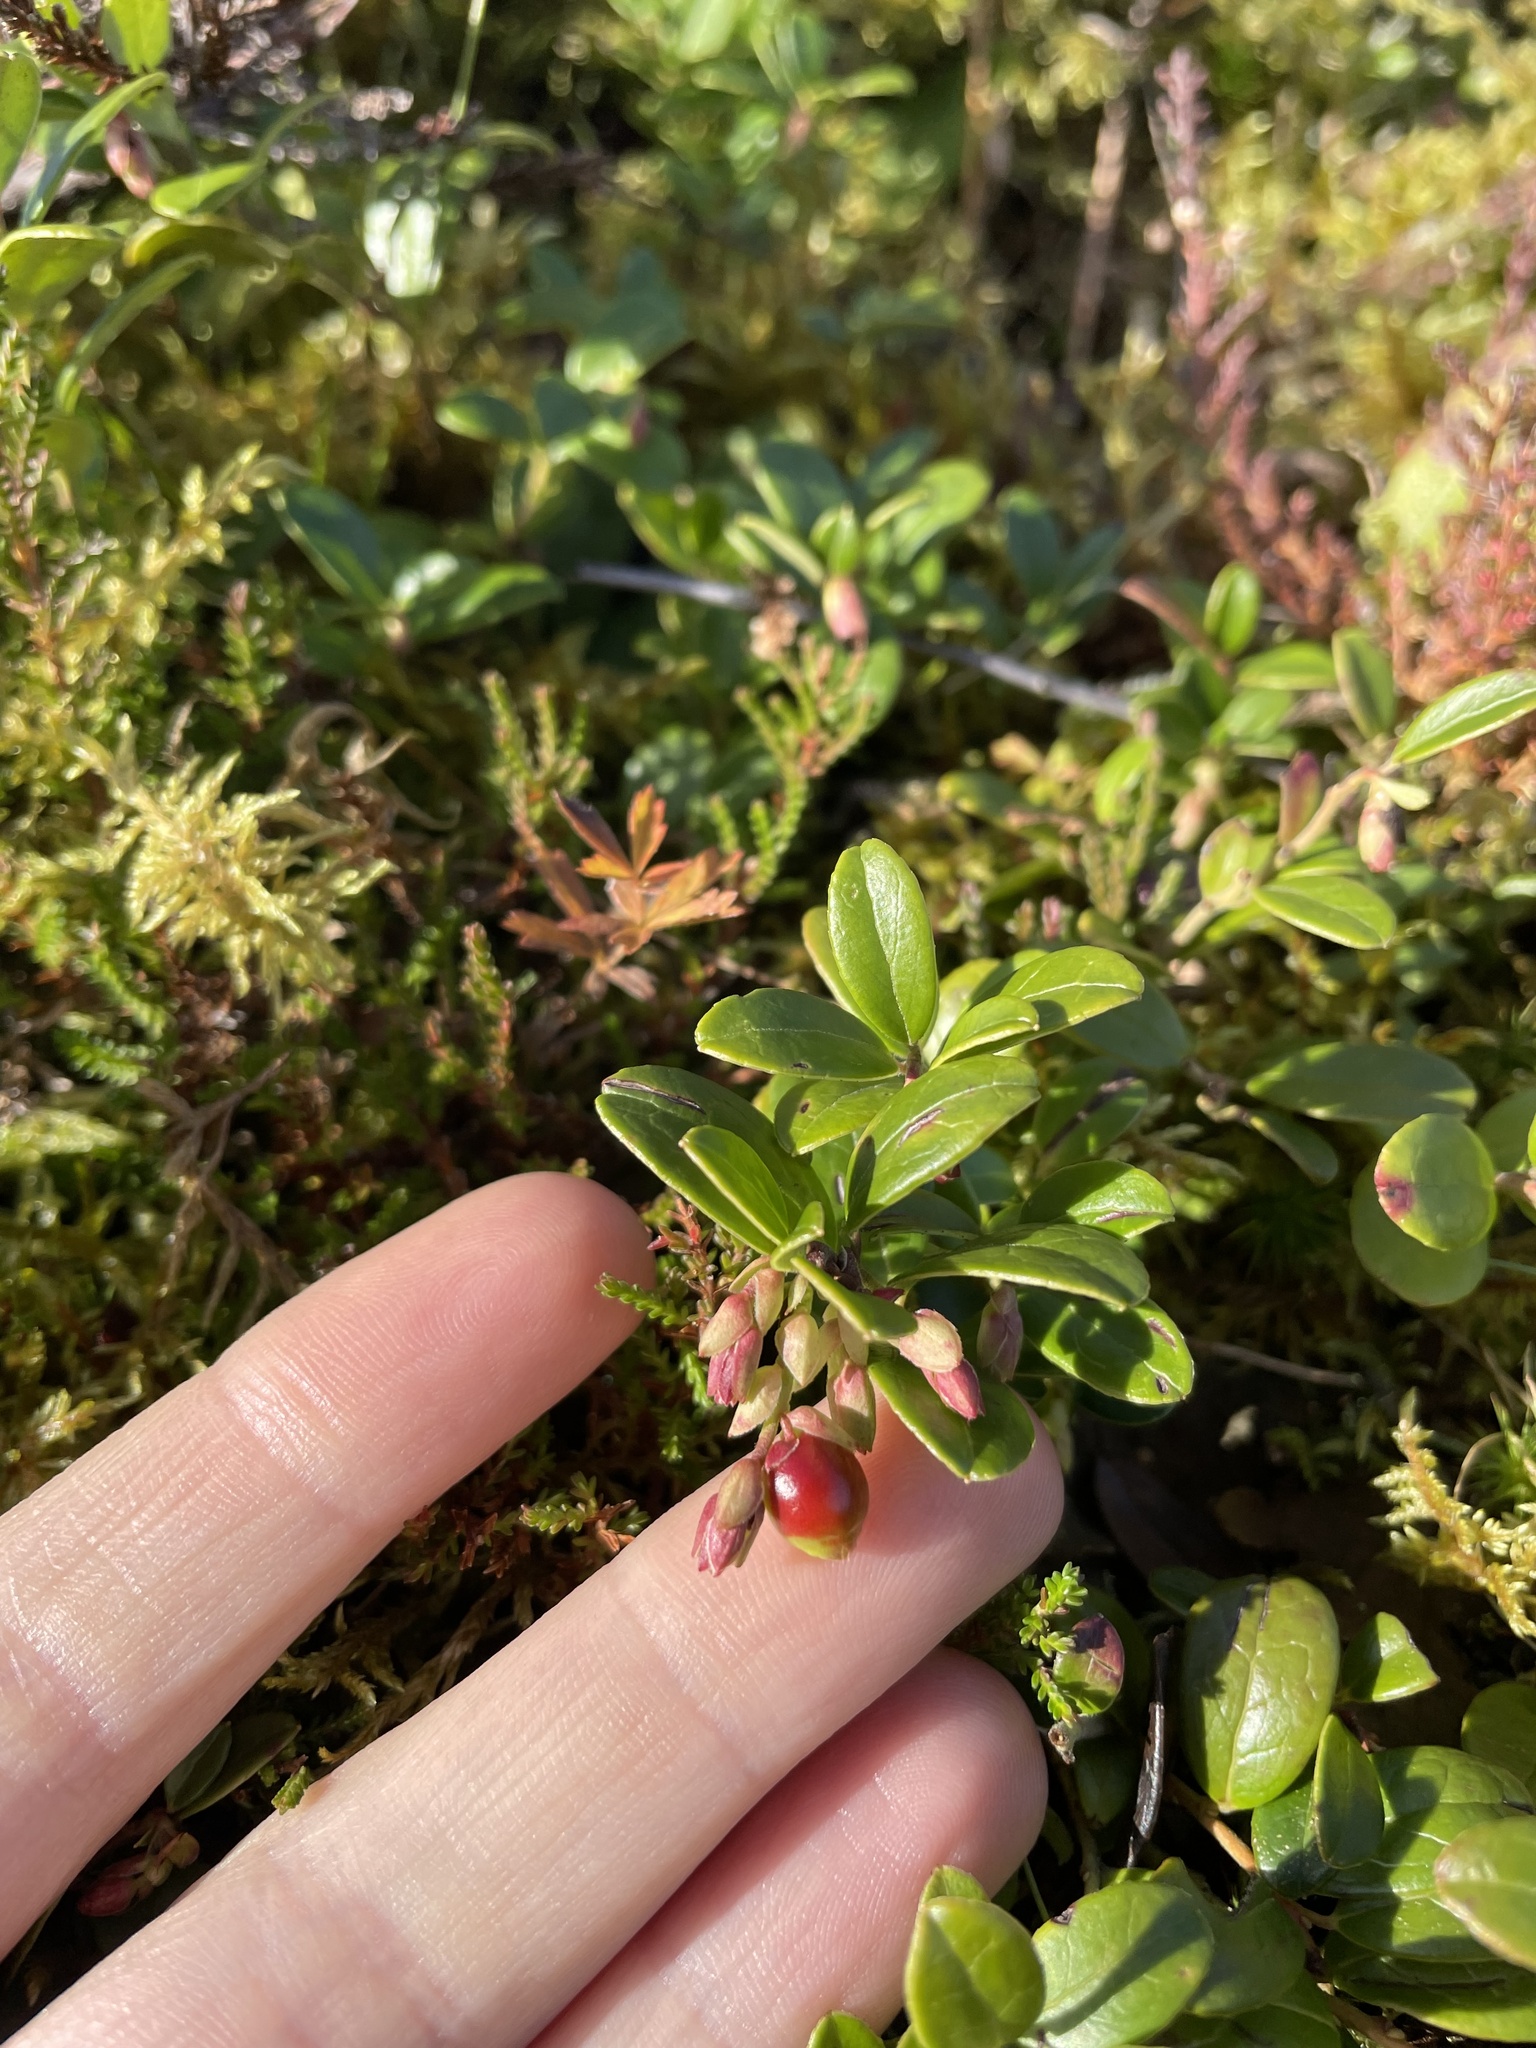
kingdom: Plantae
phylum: Tracheophyta
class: Magnoliopsida
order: Ericales
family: Ericaceae
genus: Vaccinium
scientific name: Vaccinium vitis-idaea
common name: Cowberry
